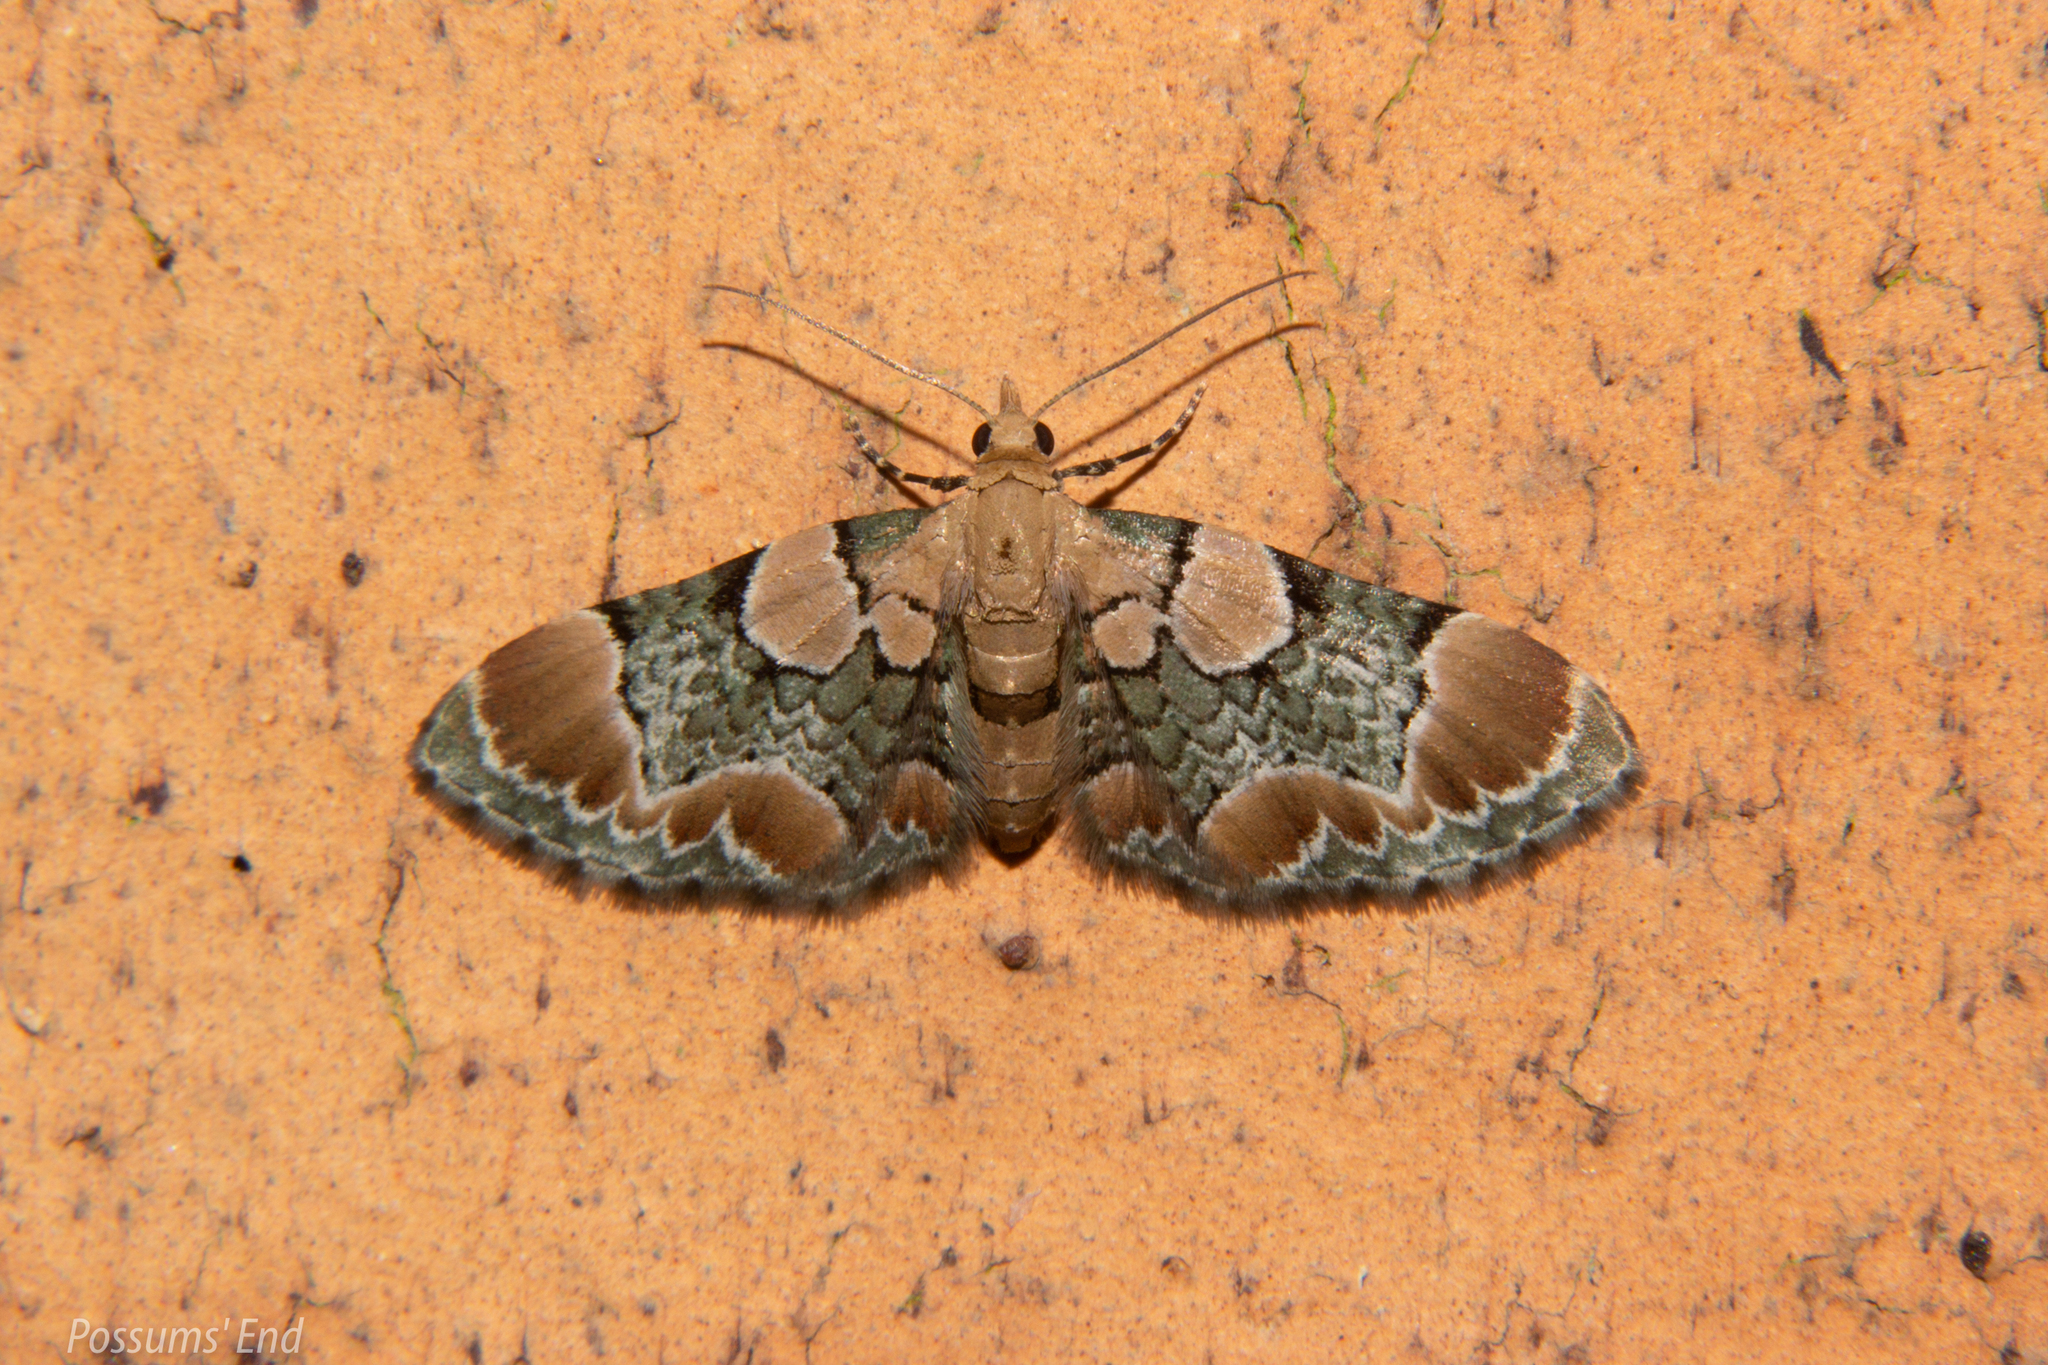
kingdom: Animalia
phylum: Arthropoda
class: Insecta
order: Lepidoptera
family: Geometridae
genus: Chloroclystis
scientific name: Chloroclystis
